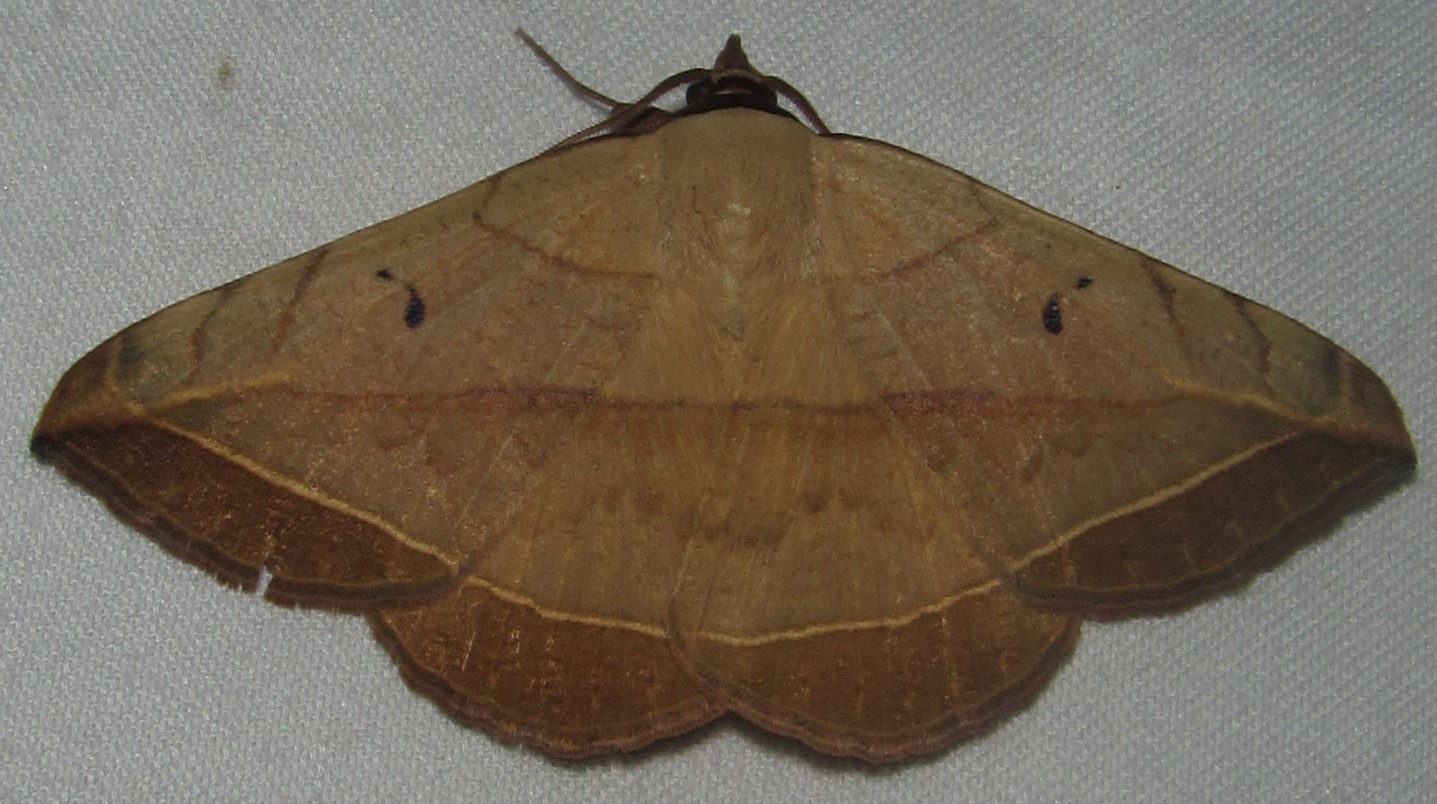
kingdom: Animalia
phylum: Arthropoda
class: Insecta
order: Lepidoptera
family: Erebidae
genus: Entomogramma
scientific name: Entomogramma pardus
